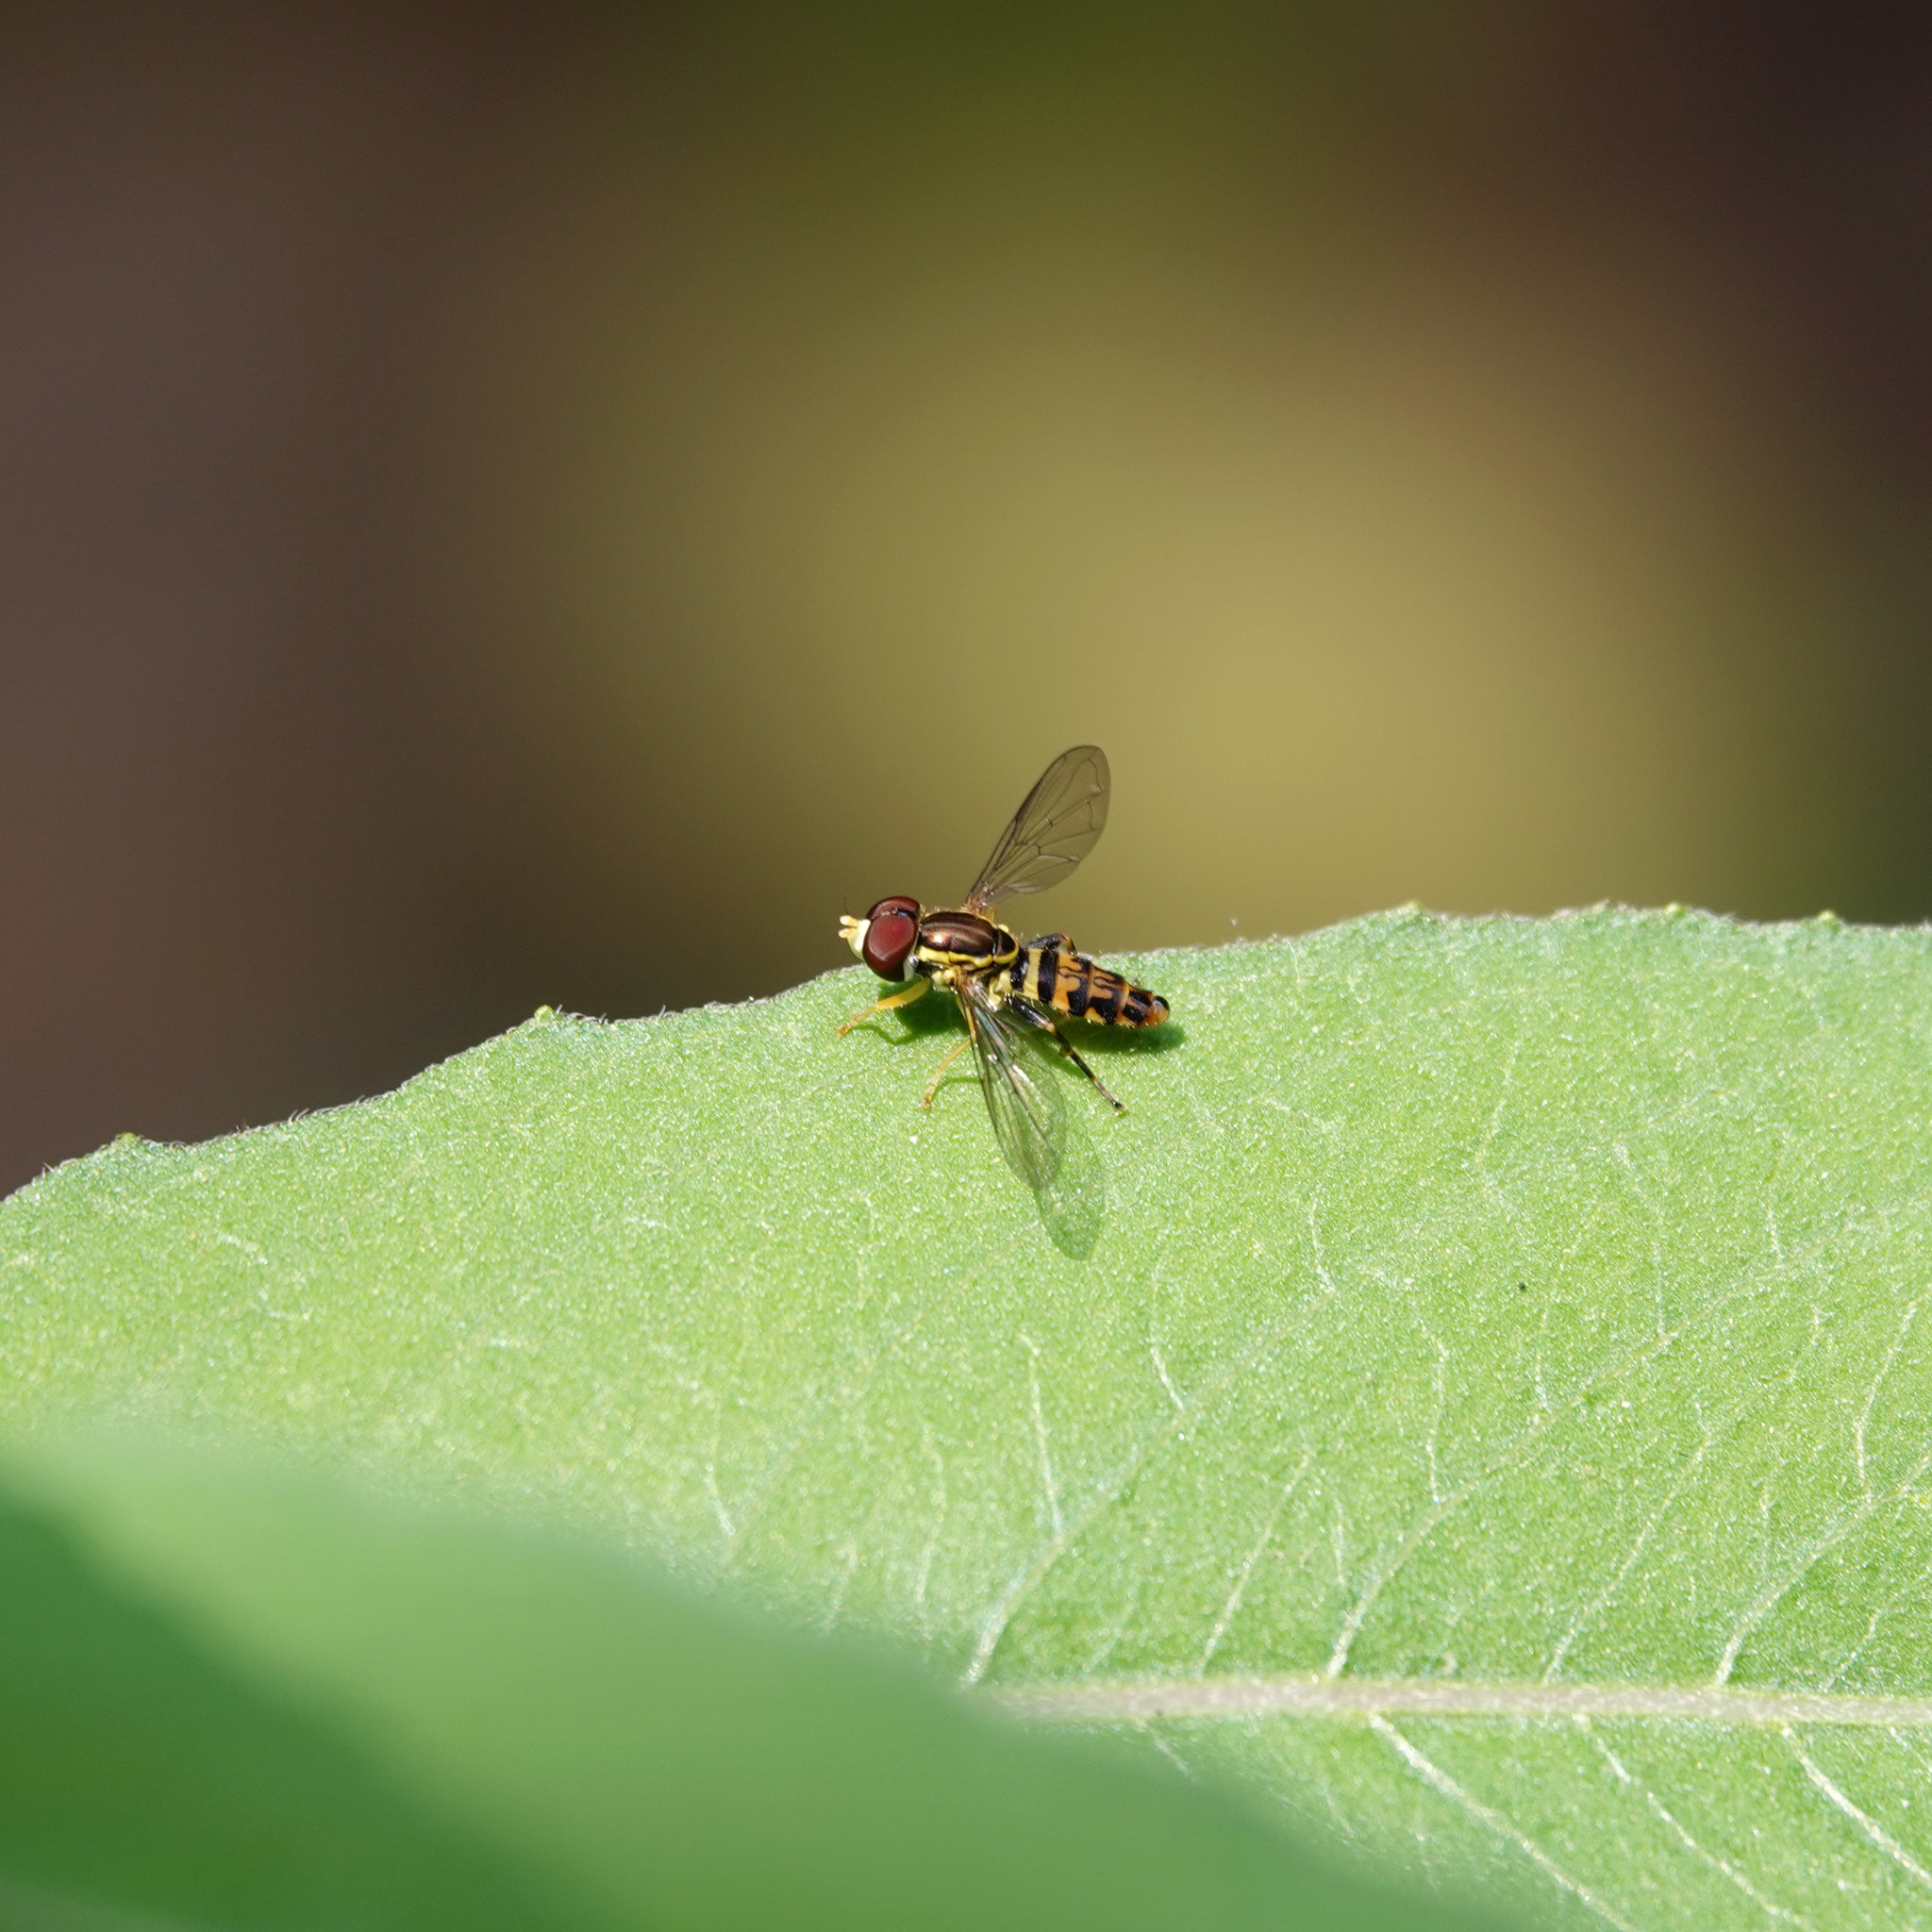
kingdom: Animalia
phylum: Arthropoda
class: Insecta
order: Diptera
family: Syrphidae
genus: Toxomerus
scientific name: Toxomerus geminatus
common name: Eastern calligrapher
